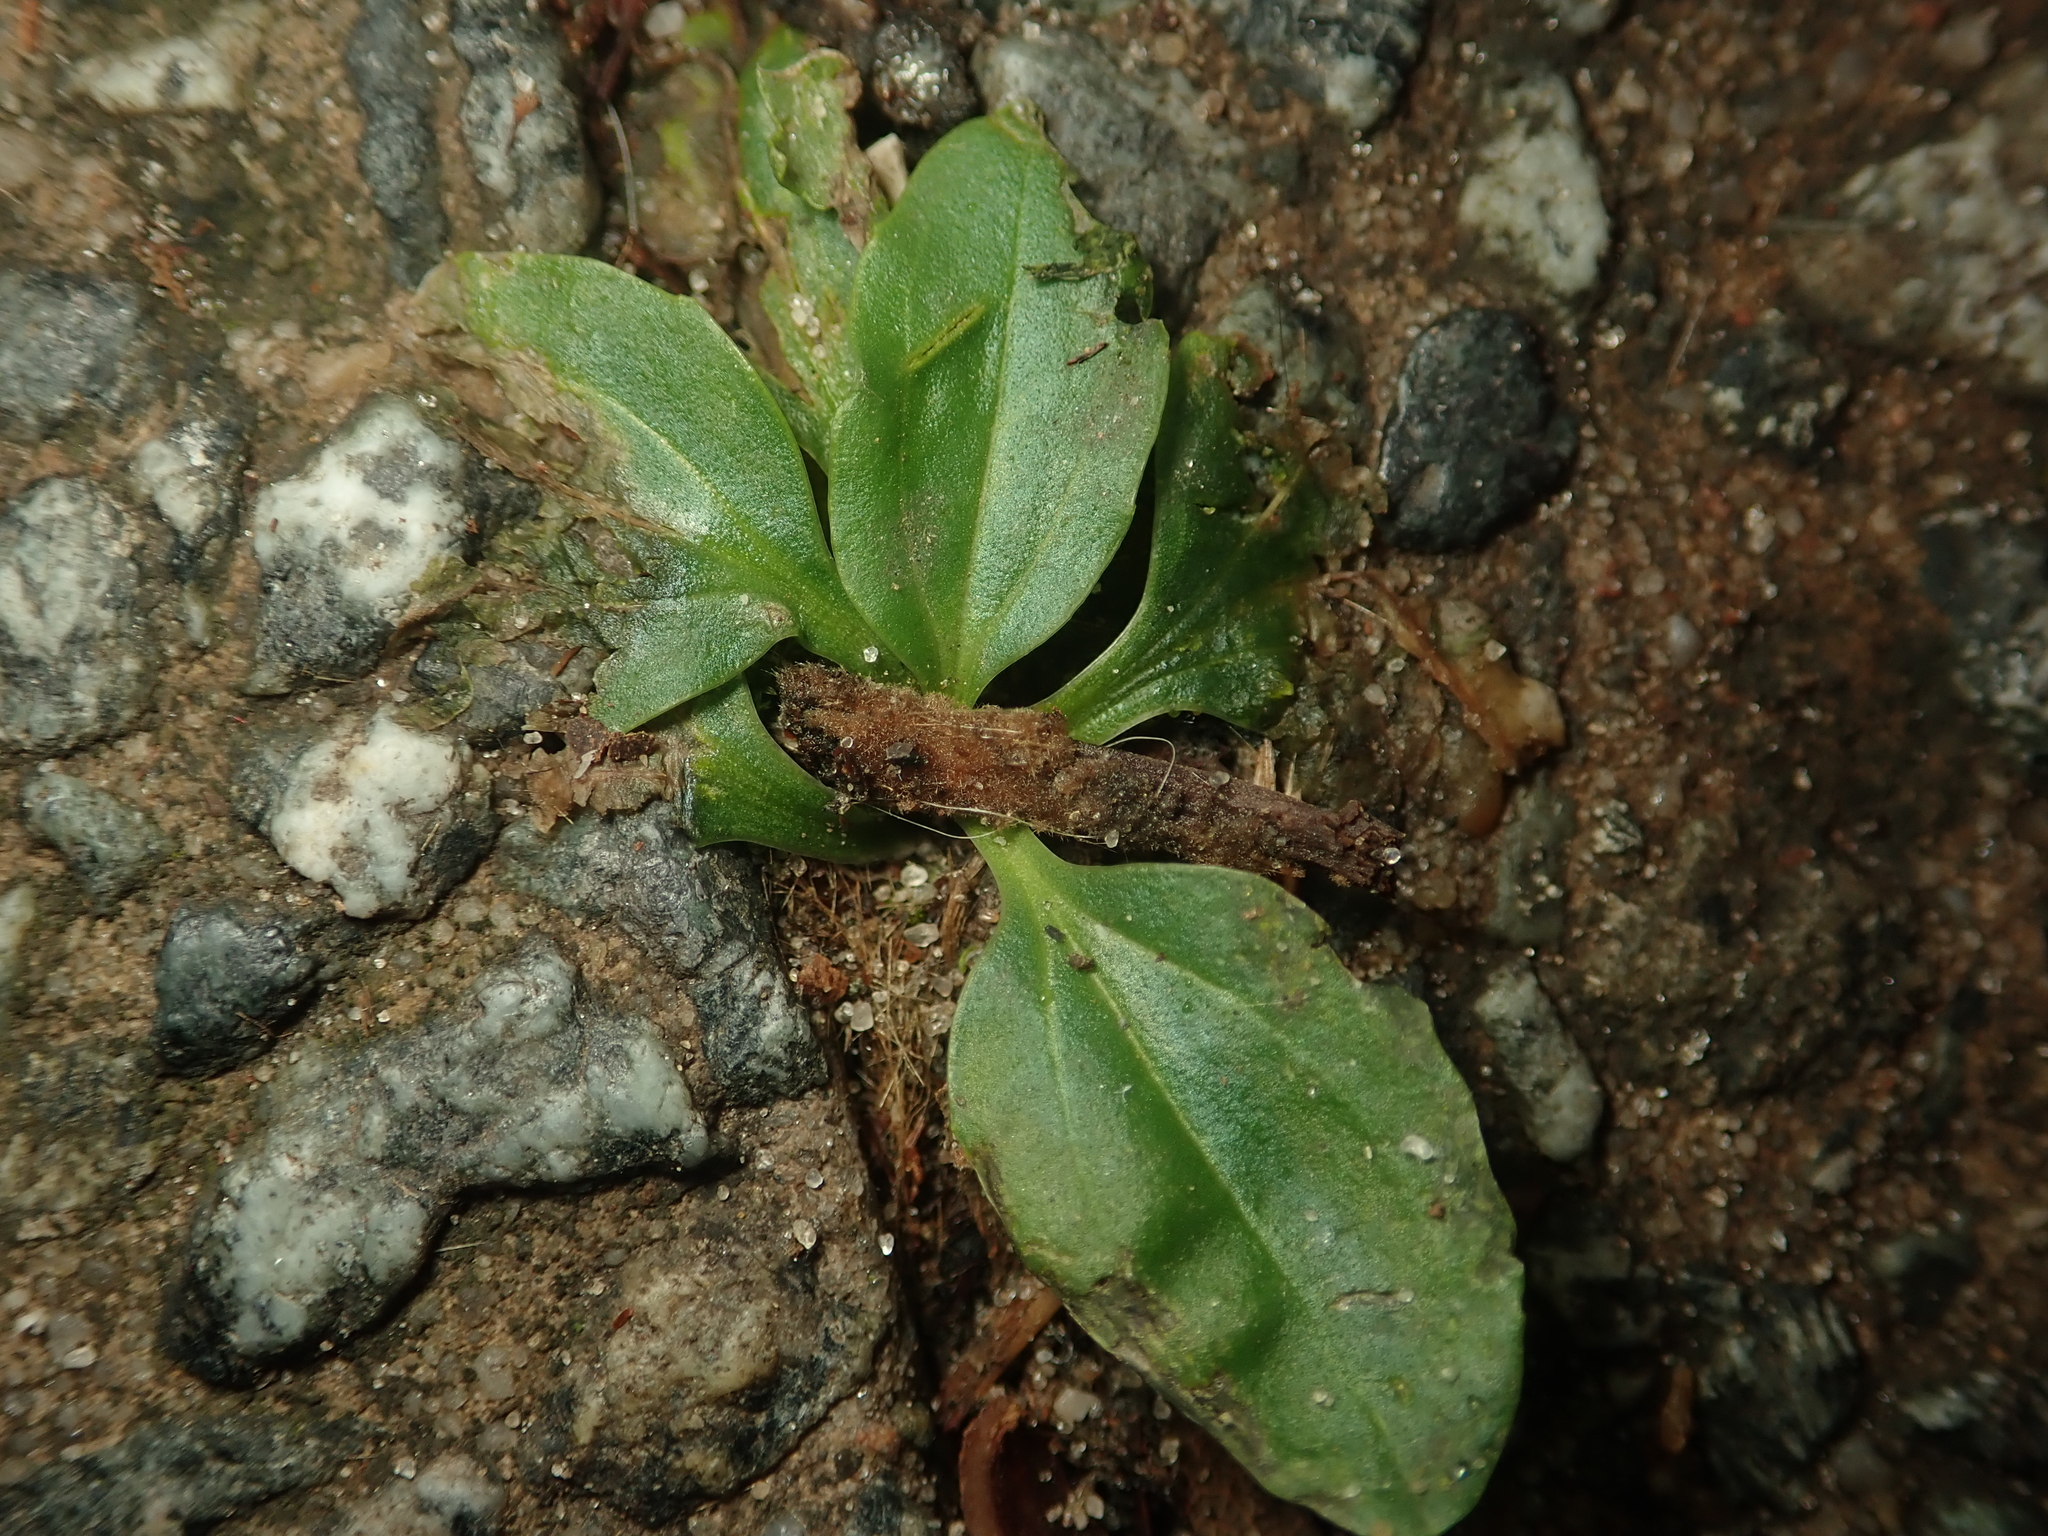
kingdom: Plantae
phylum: Tracheophyta
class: Magnoliopsida
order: Lamiales
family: Plantaginaceae
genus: Plantago
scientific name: Plantago major
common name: Common plantain
